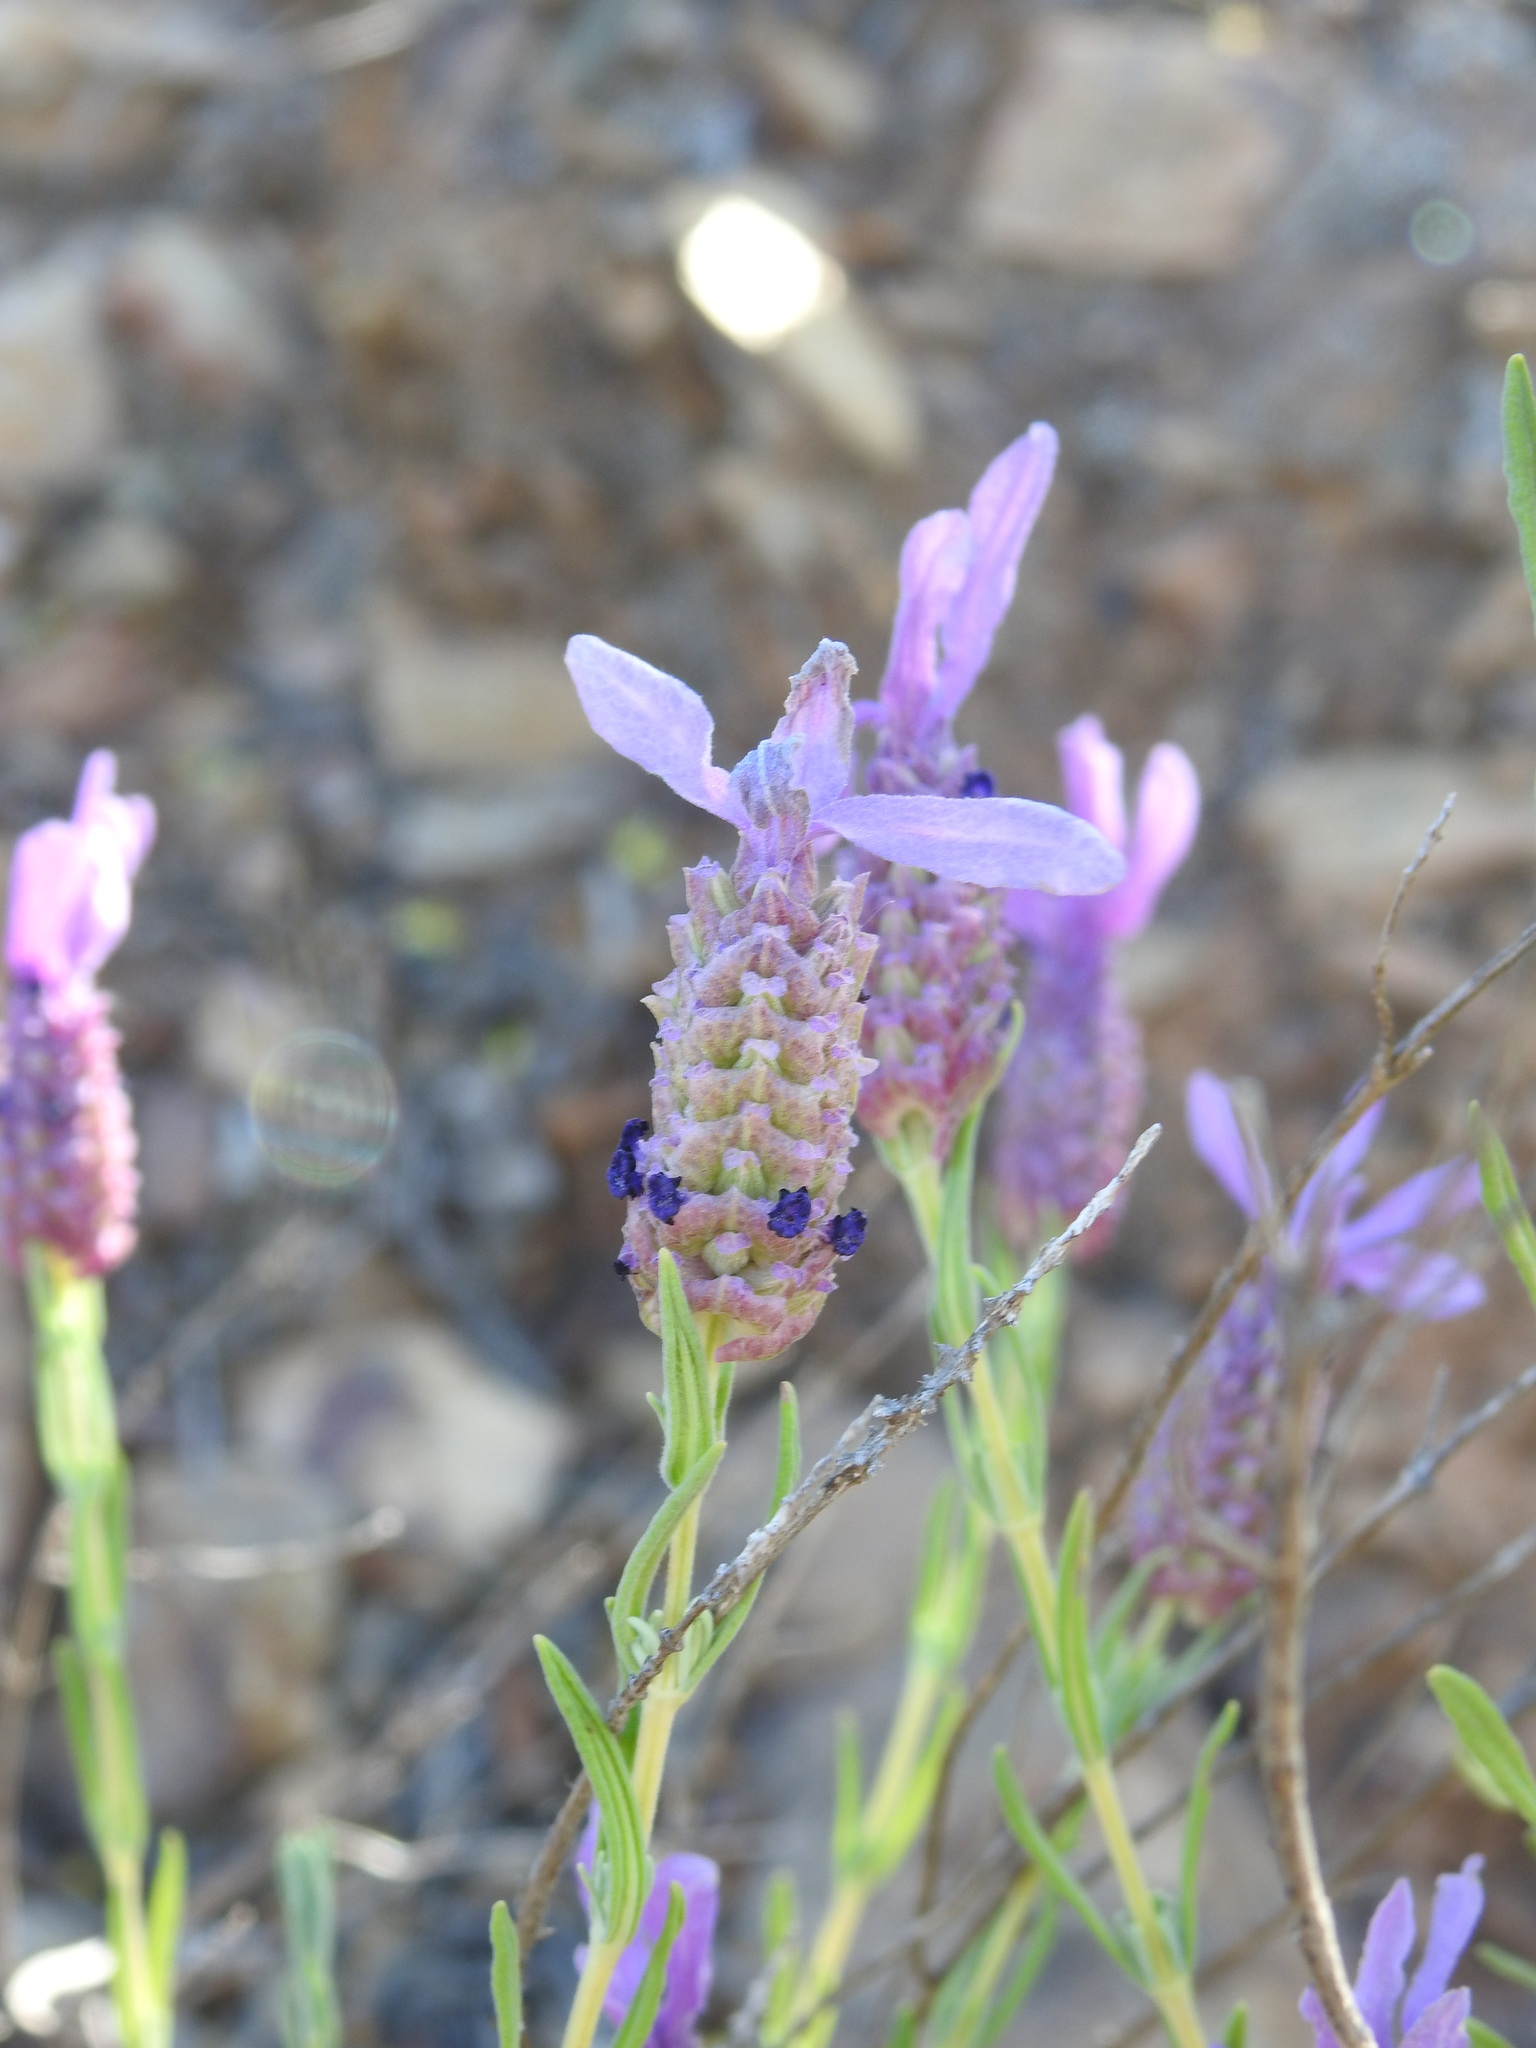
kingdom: Plantae
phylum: Tracheophyta
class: Magnoliopsida
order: Lamiales
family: Lamiaceae
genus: Lavandula
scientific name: Lavandula stoechas
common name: French lavender
